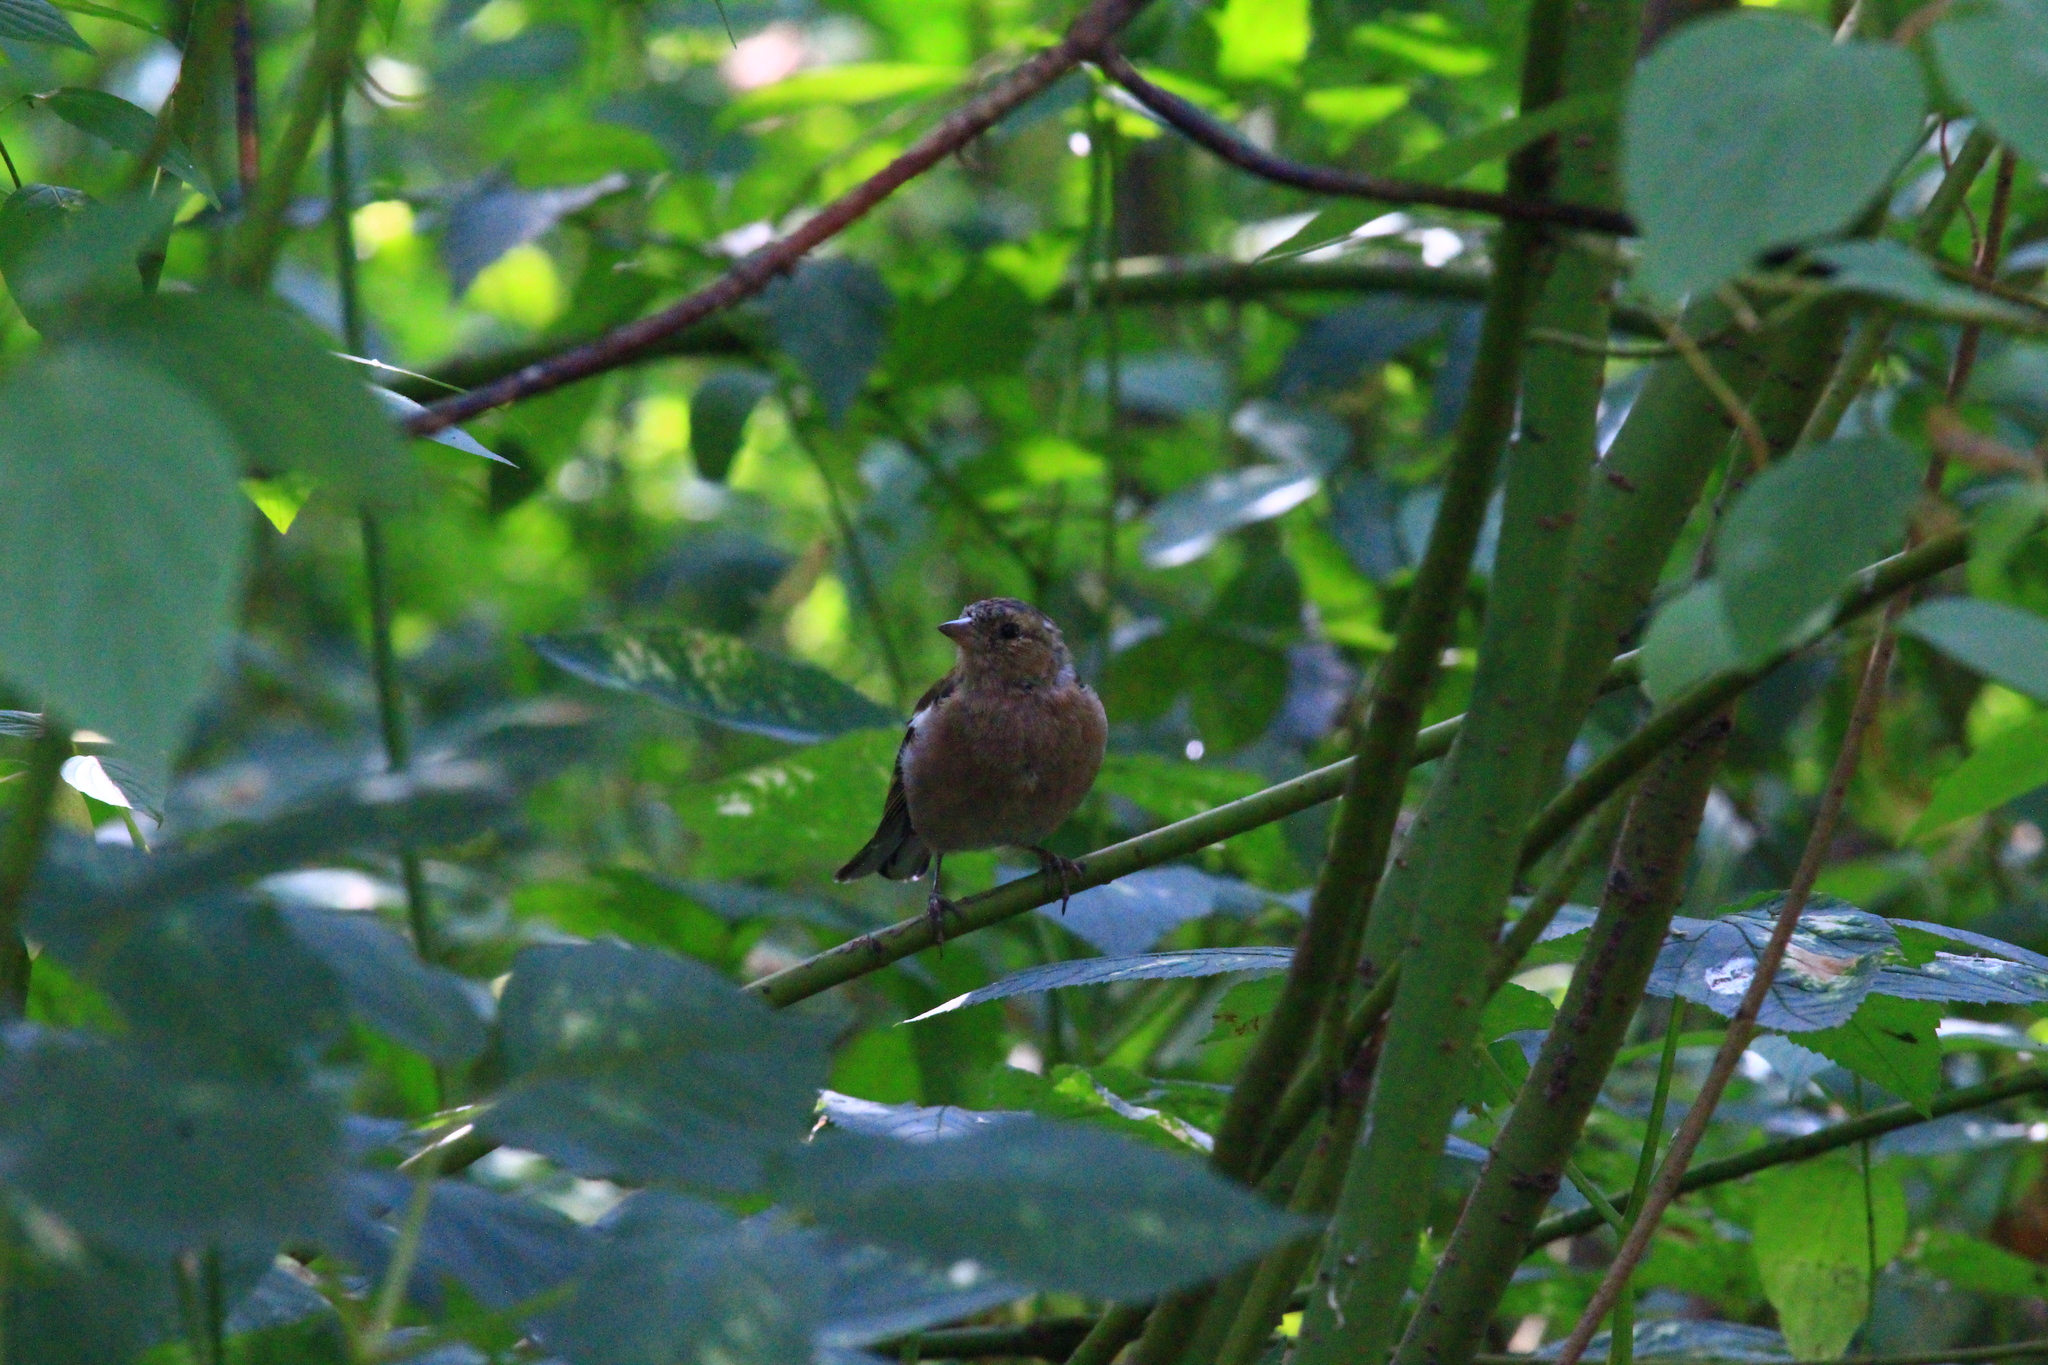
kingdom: Animalia
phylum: Chordata
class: Aves
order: Passeriformes
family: Fringillidae
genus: Fringilla
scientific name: Fringilla coelebs
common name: Common chaffinch
